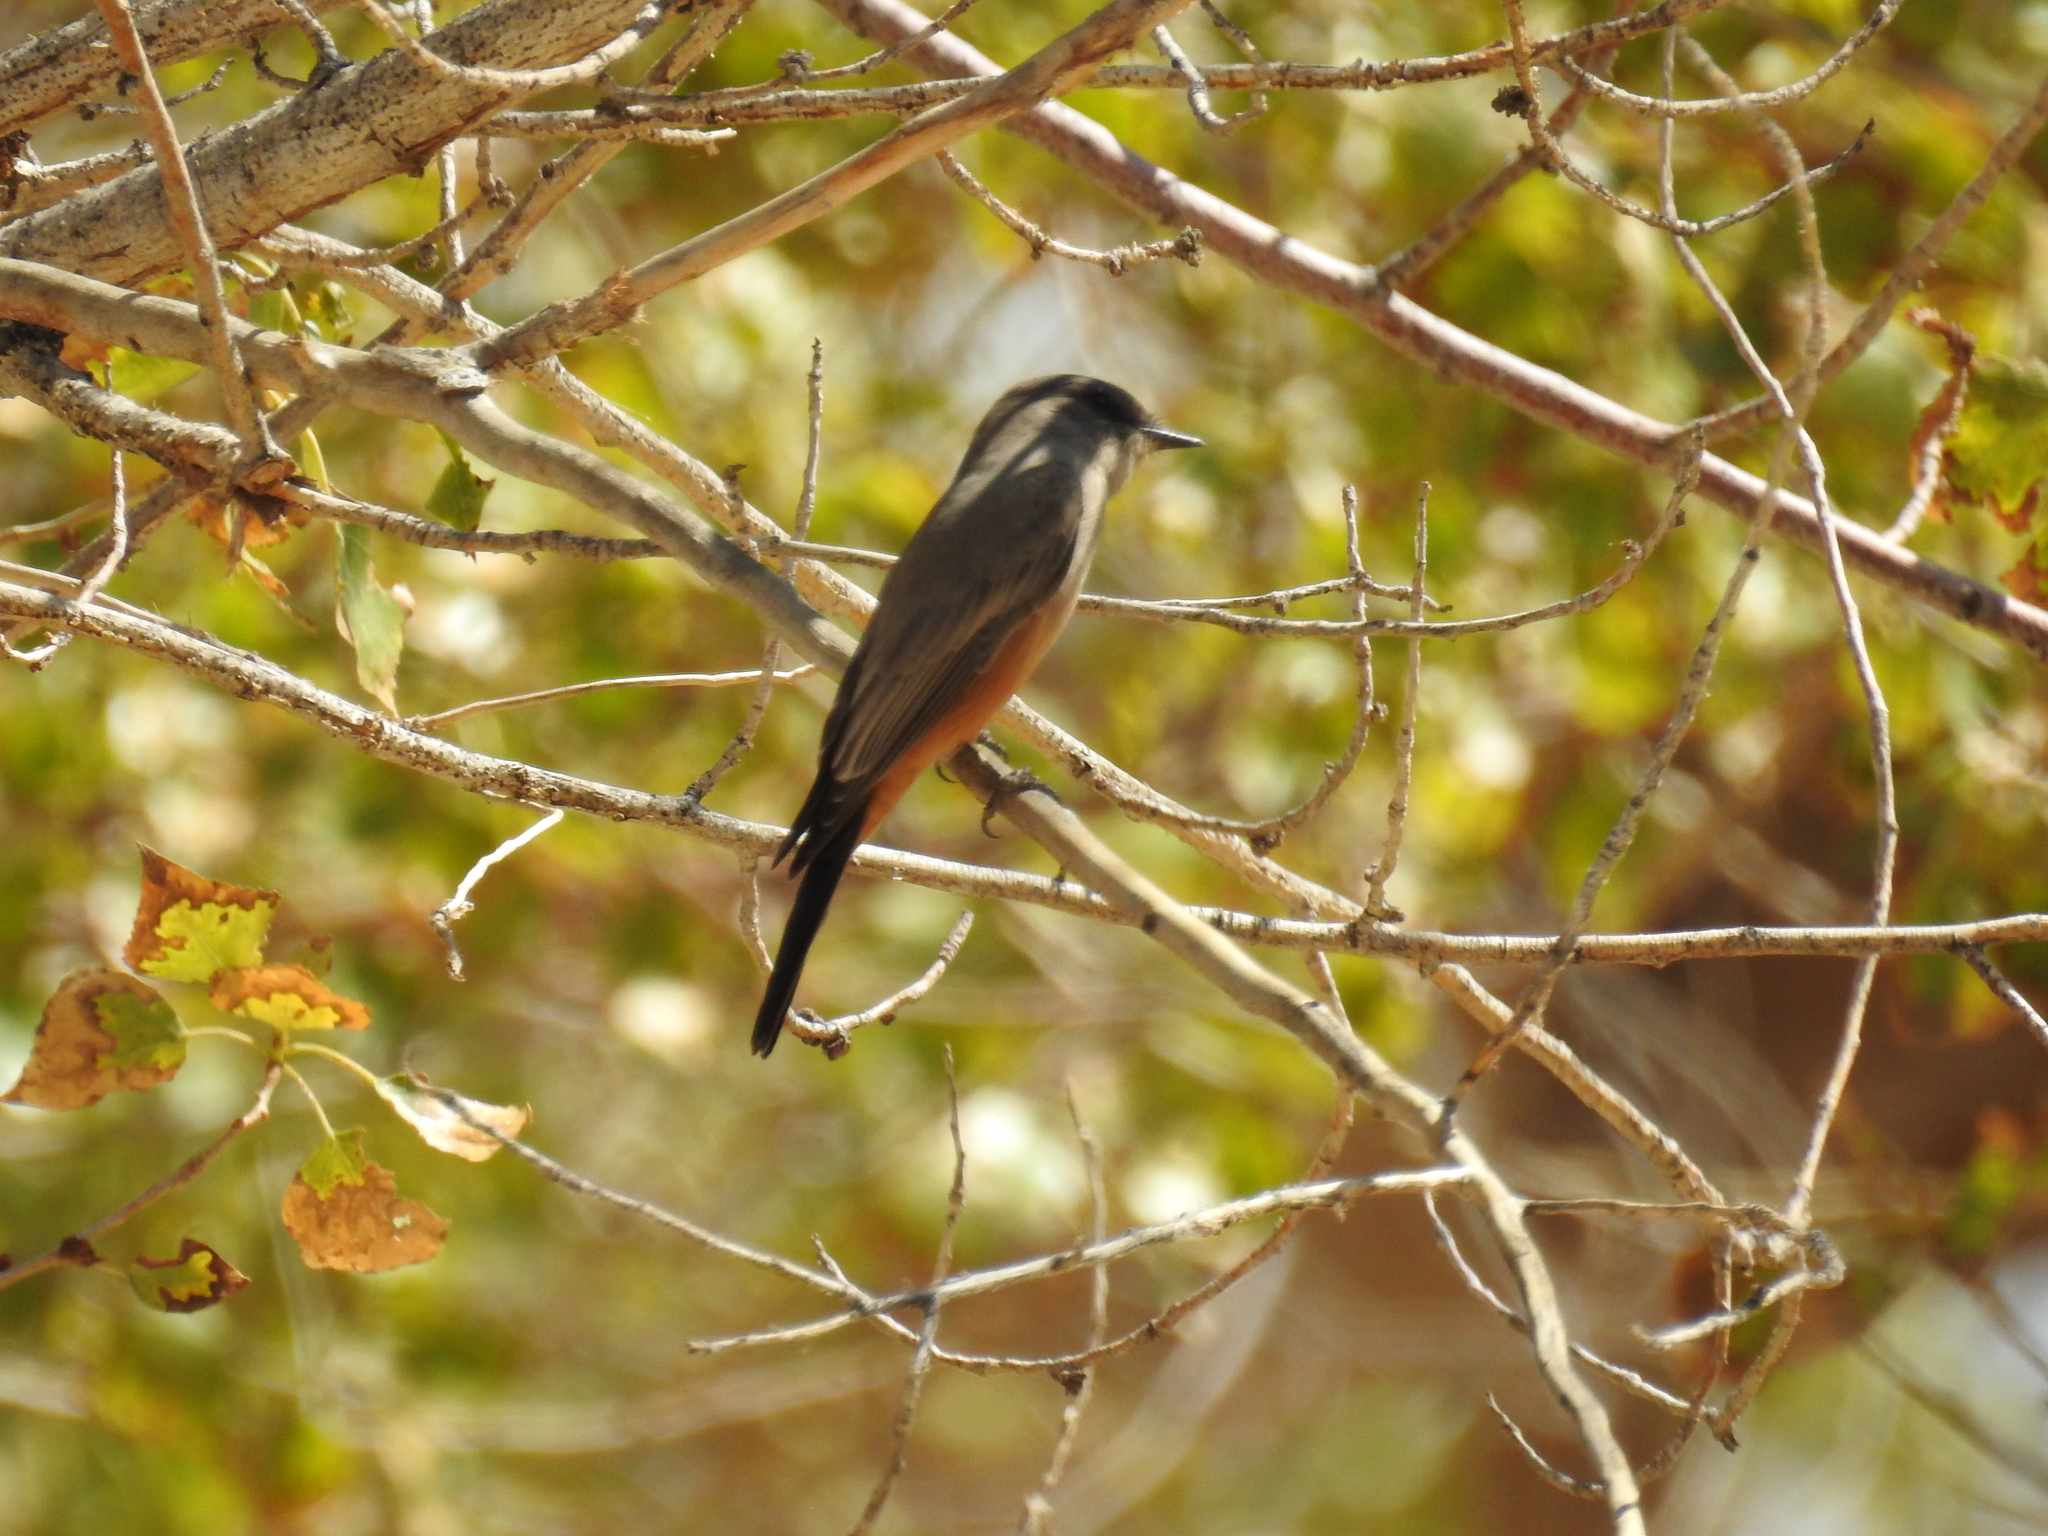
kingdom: Animalia
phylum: Chordata
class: Aves
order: Passeriformes
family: Tyrannidae
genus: Sayornis
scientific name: Sayornis saya
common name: Say's phoebe
